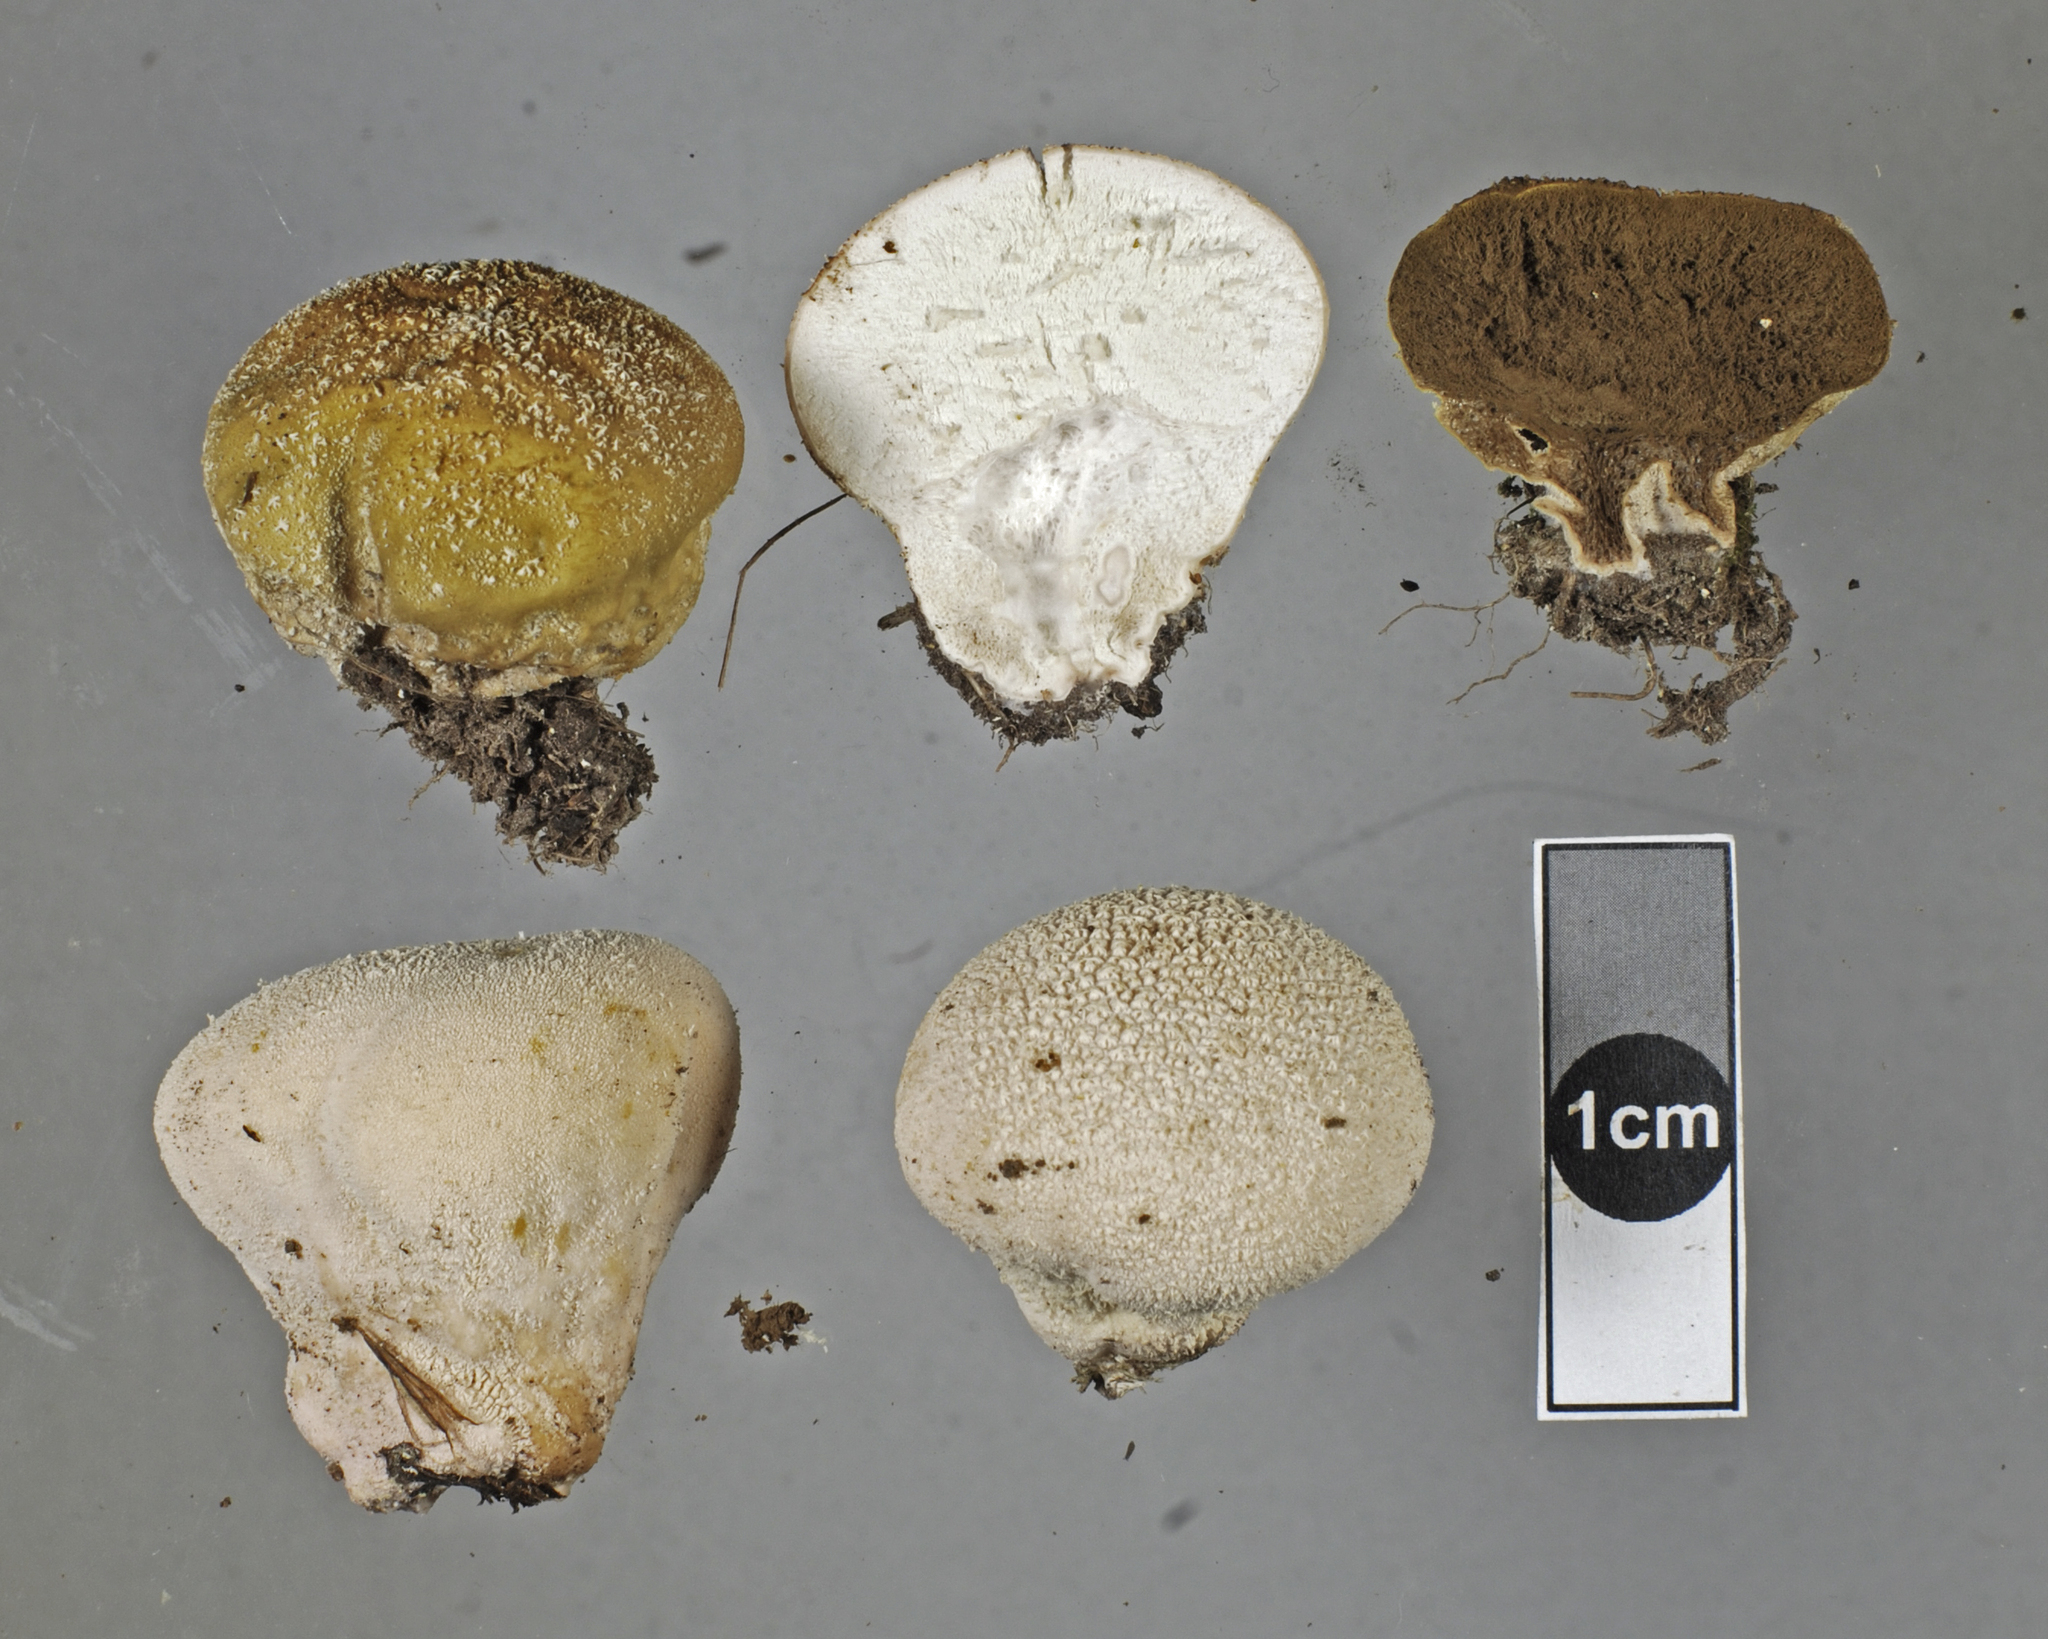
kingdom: Fungi
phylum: Basidiomycota
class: Agaricomycetes
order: Agaricales
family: Lycoperdaceae
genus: Lycoperdon
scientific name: Lycoperdon pratense
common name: Meadow puffball
